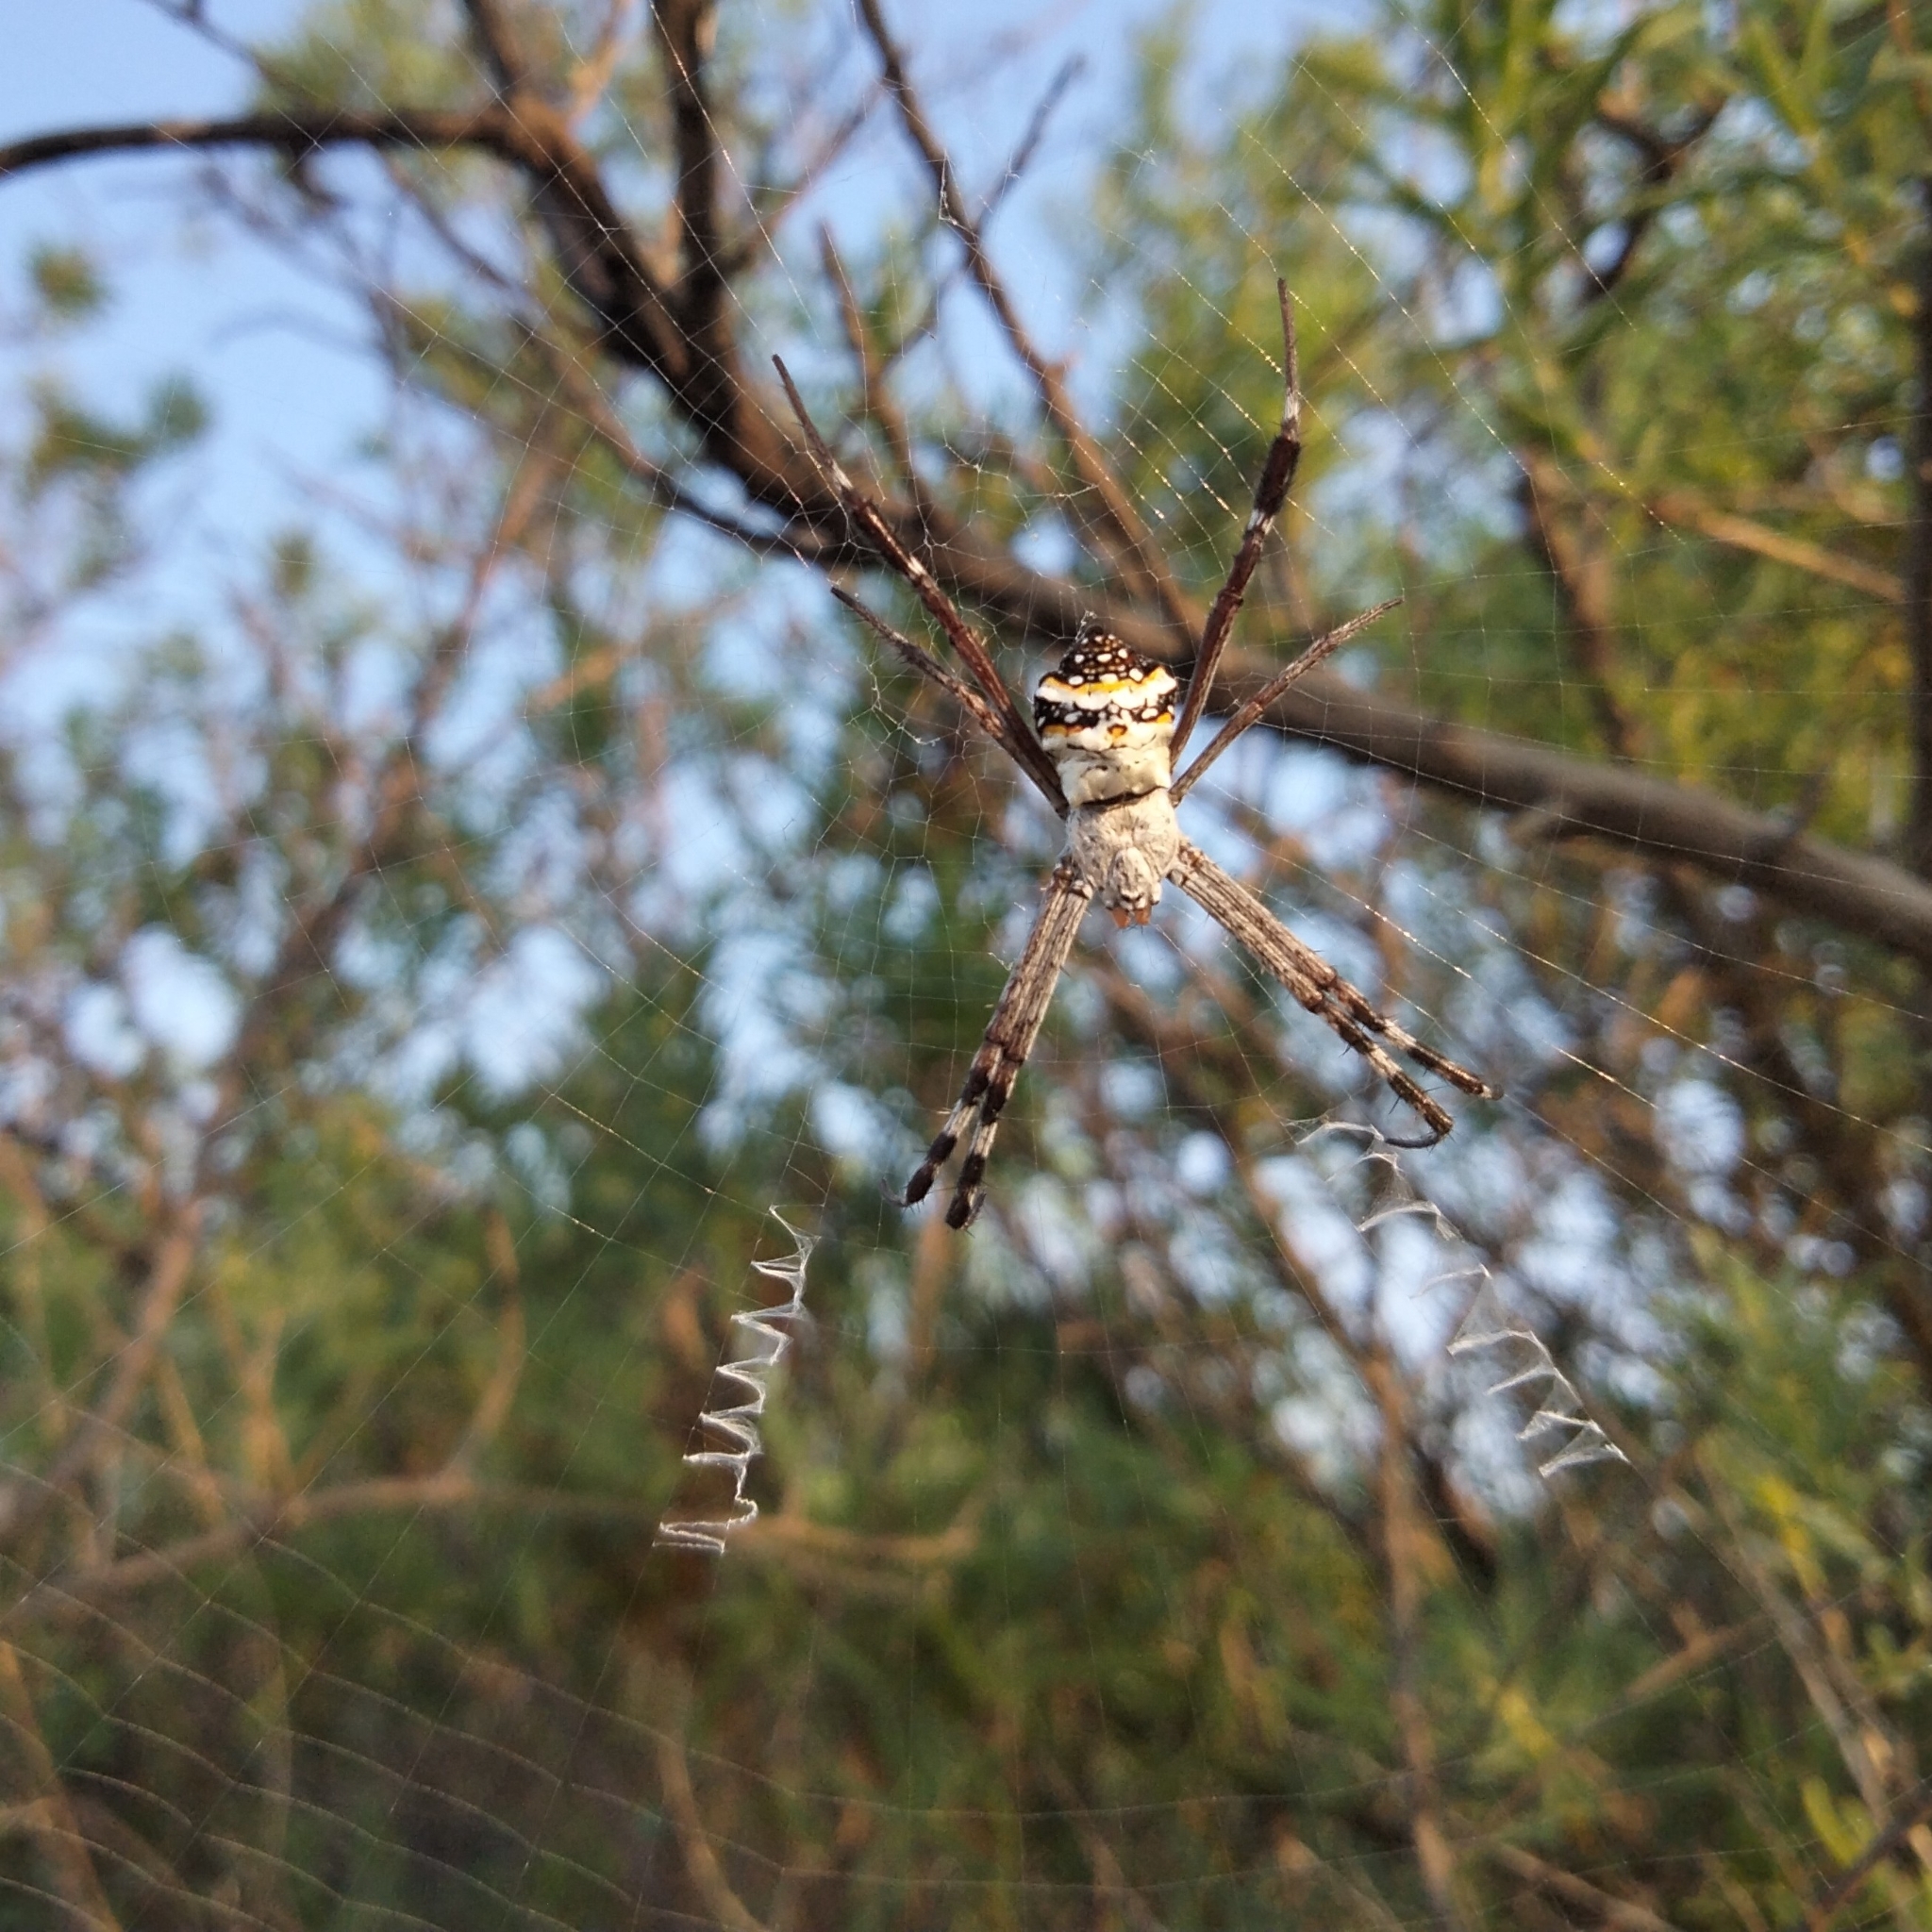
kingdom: Animalia
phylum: Arthropoda
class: Arachnida
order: Araneae
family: Araneidae
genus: Argiope
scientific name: Argiope anasuja
